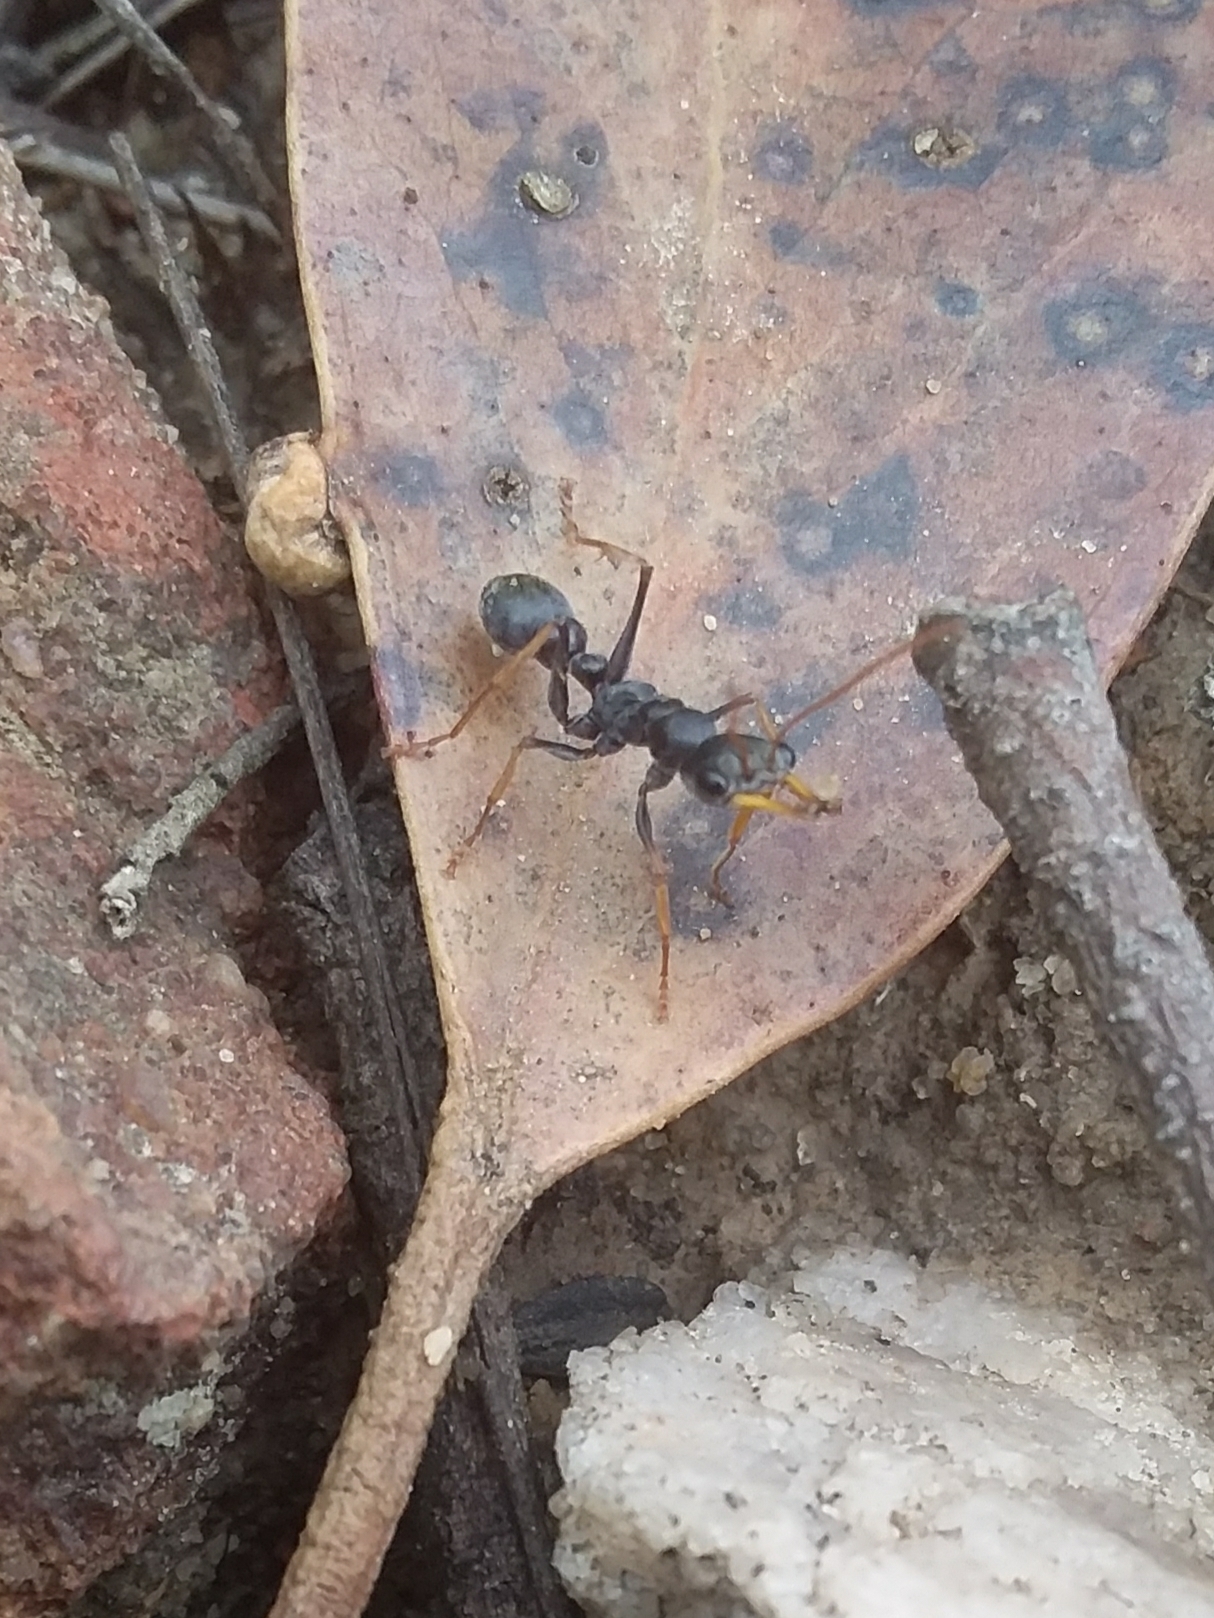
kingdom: Animalia
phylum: Arthropoda
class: Insecta
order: Hymenoptera
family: Formicidae
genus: Myrmecia
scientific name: Myrmecia pilosula
